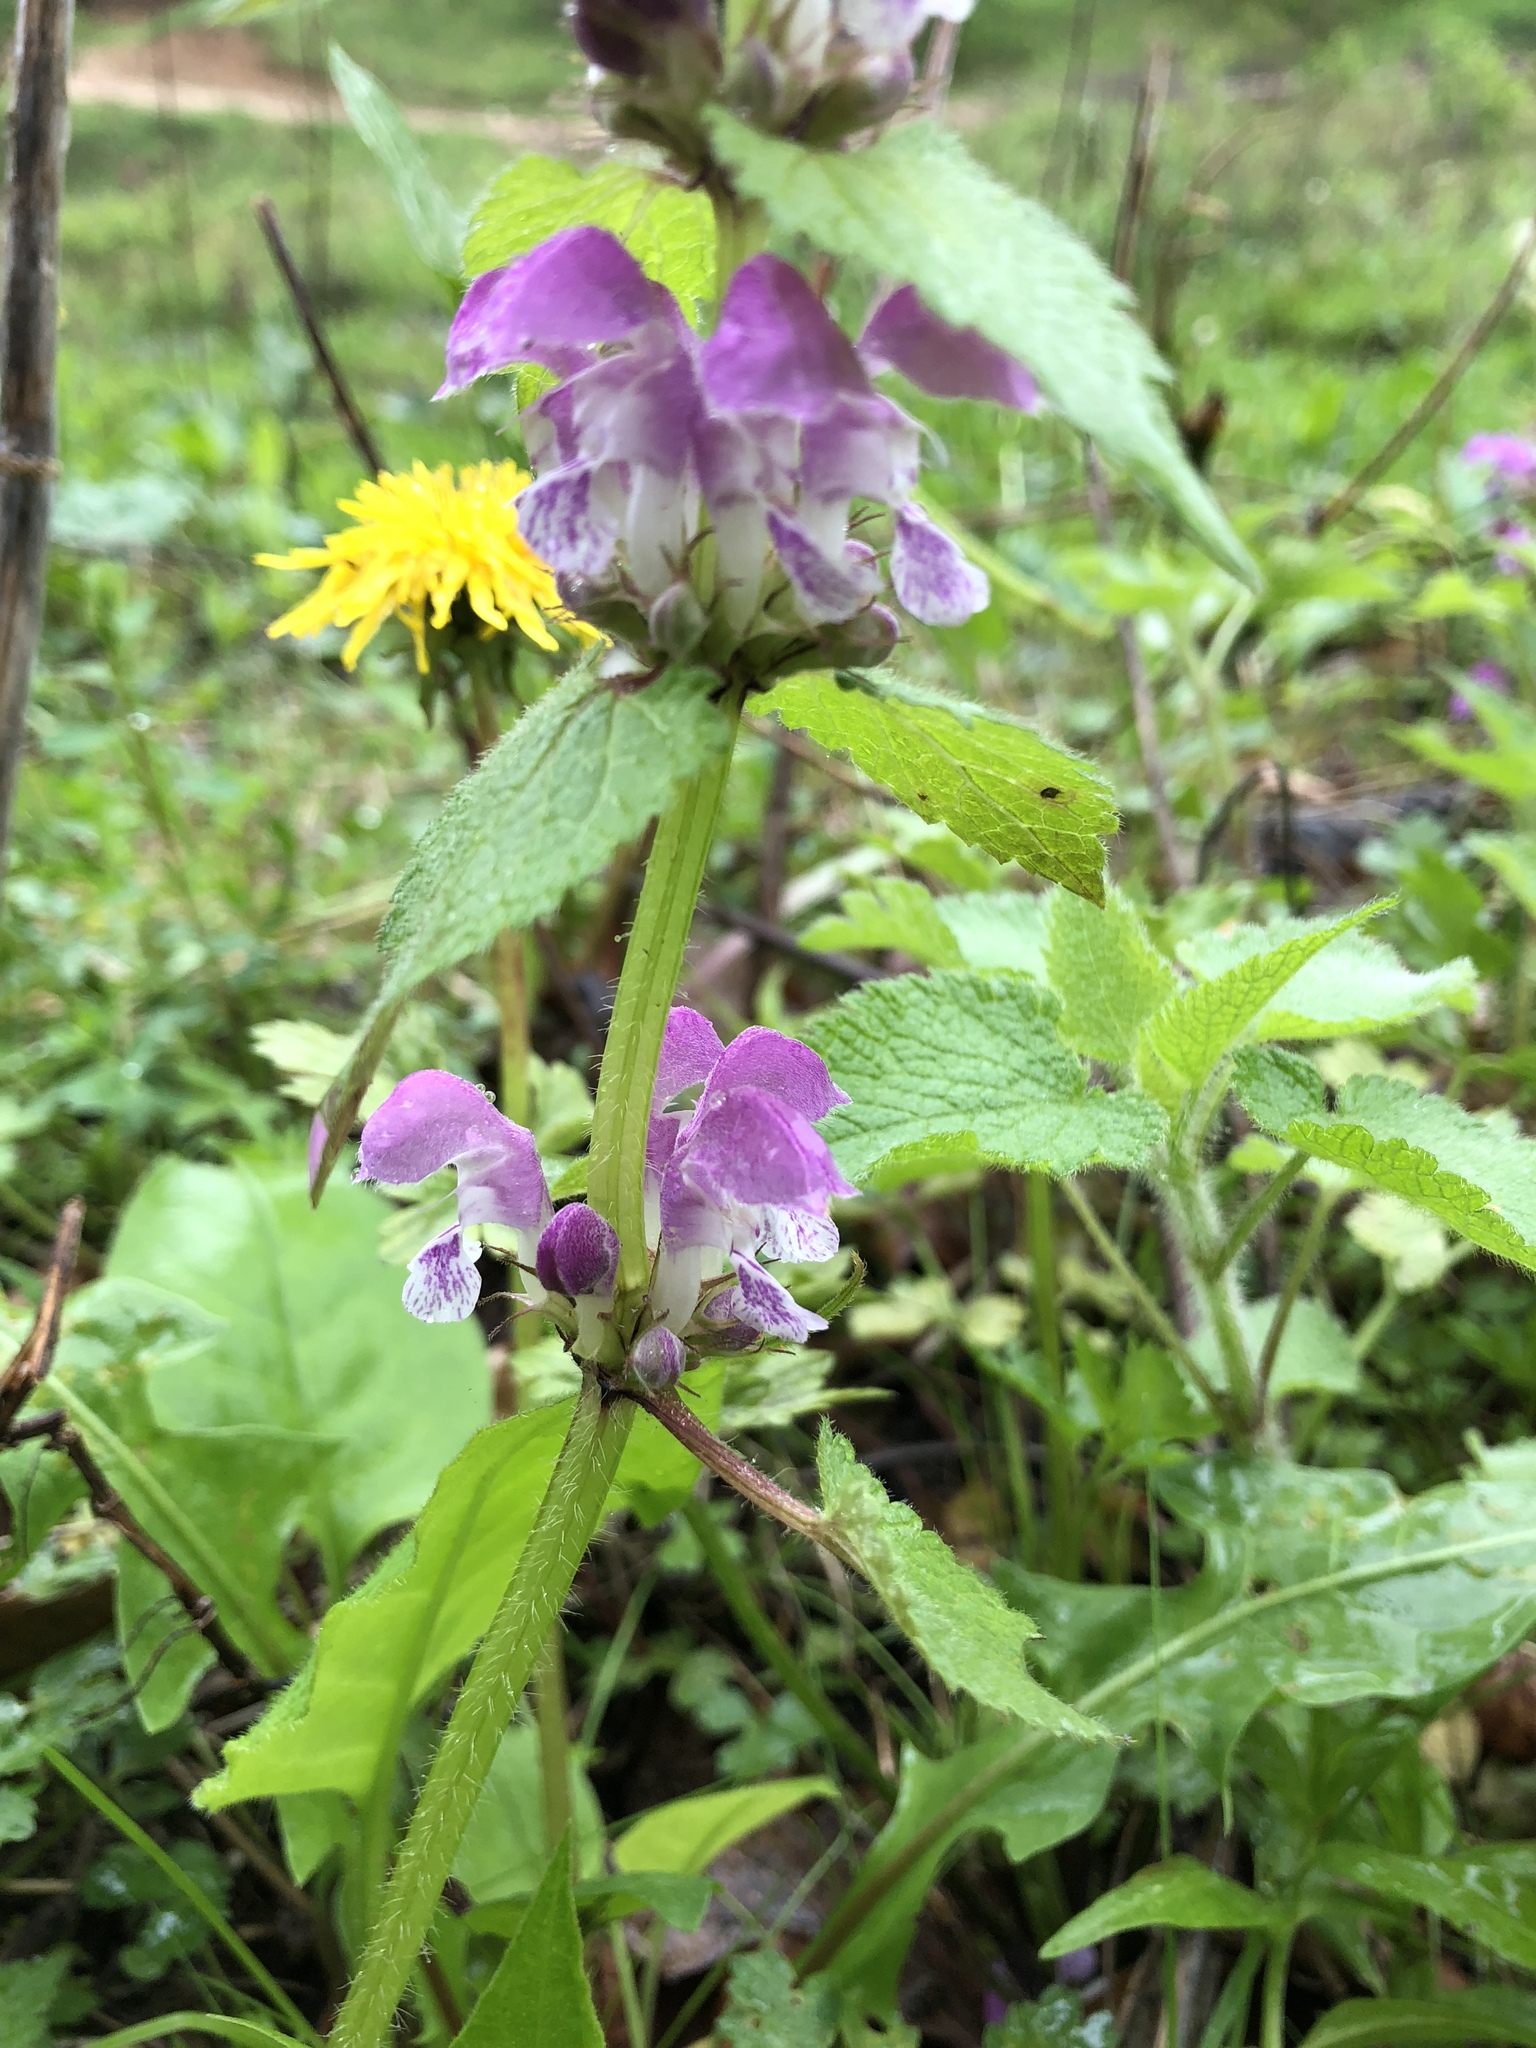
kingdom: Plantae
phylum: Tracheophyta
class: Magnoliopsida
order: Lamiales
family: Lamiaceae
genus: Lamium
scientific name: Lamium maculatum
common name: Spotted dead-nettle
